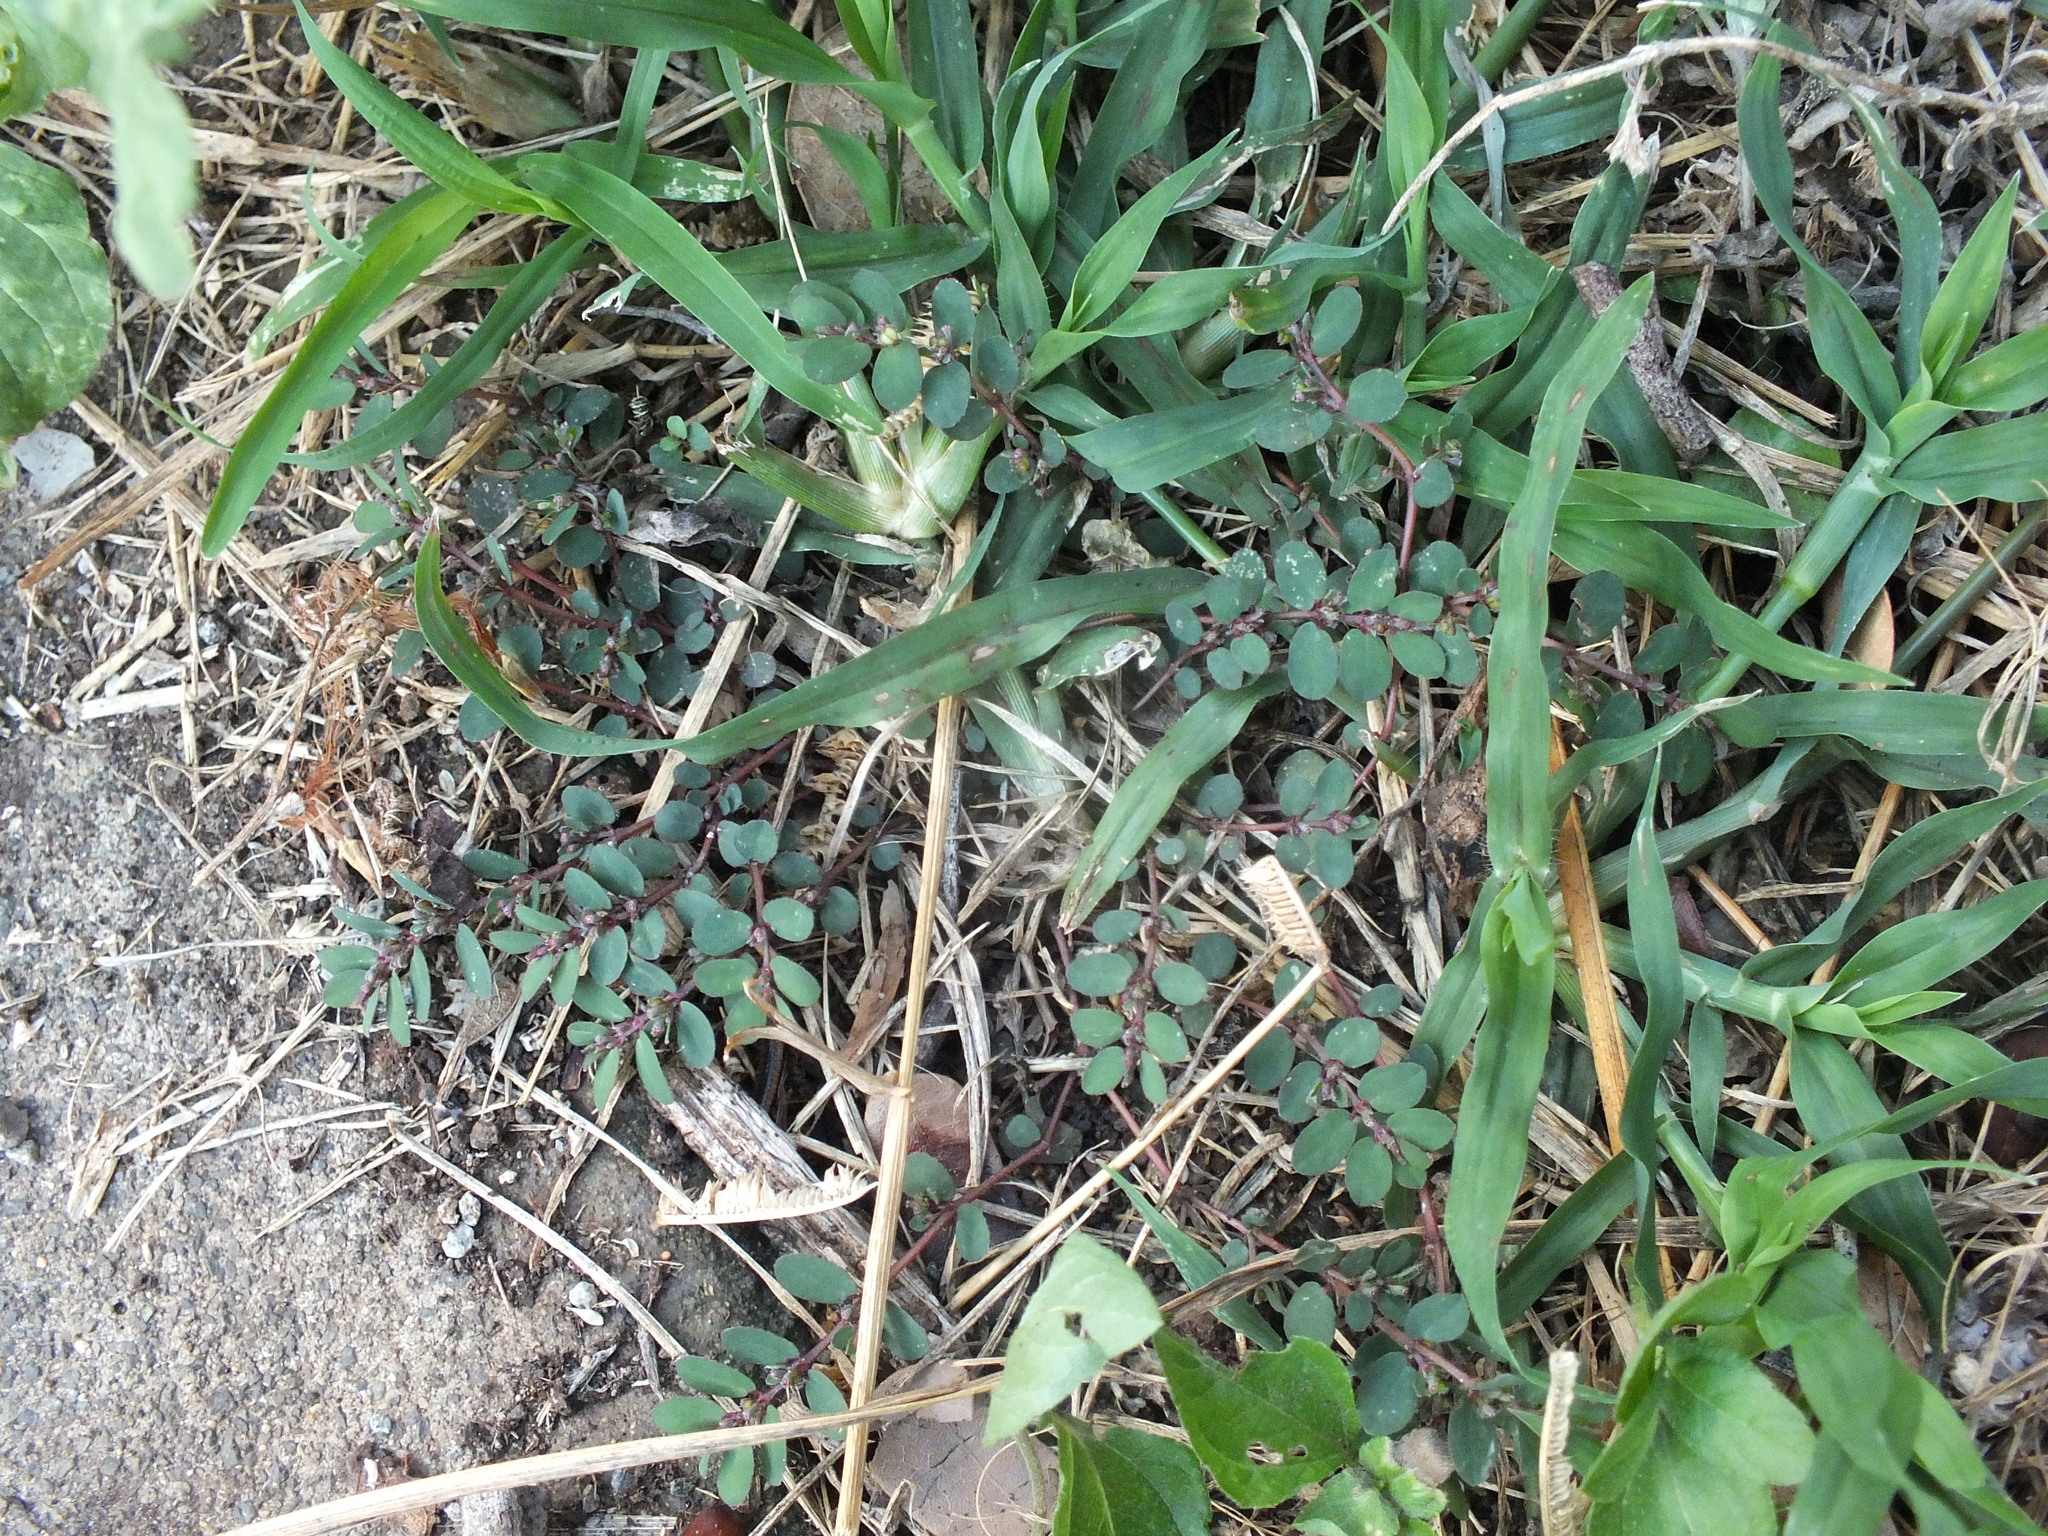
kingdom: Plantae
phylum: Tracheophyta
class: Magnoliopsida
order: Malpighiales
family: Euphorbiaceae
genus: Euphorbia
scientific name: Euphorbia prostrata
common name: Prostrate sandmat
